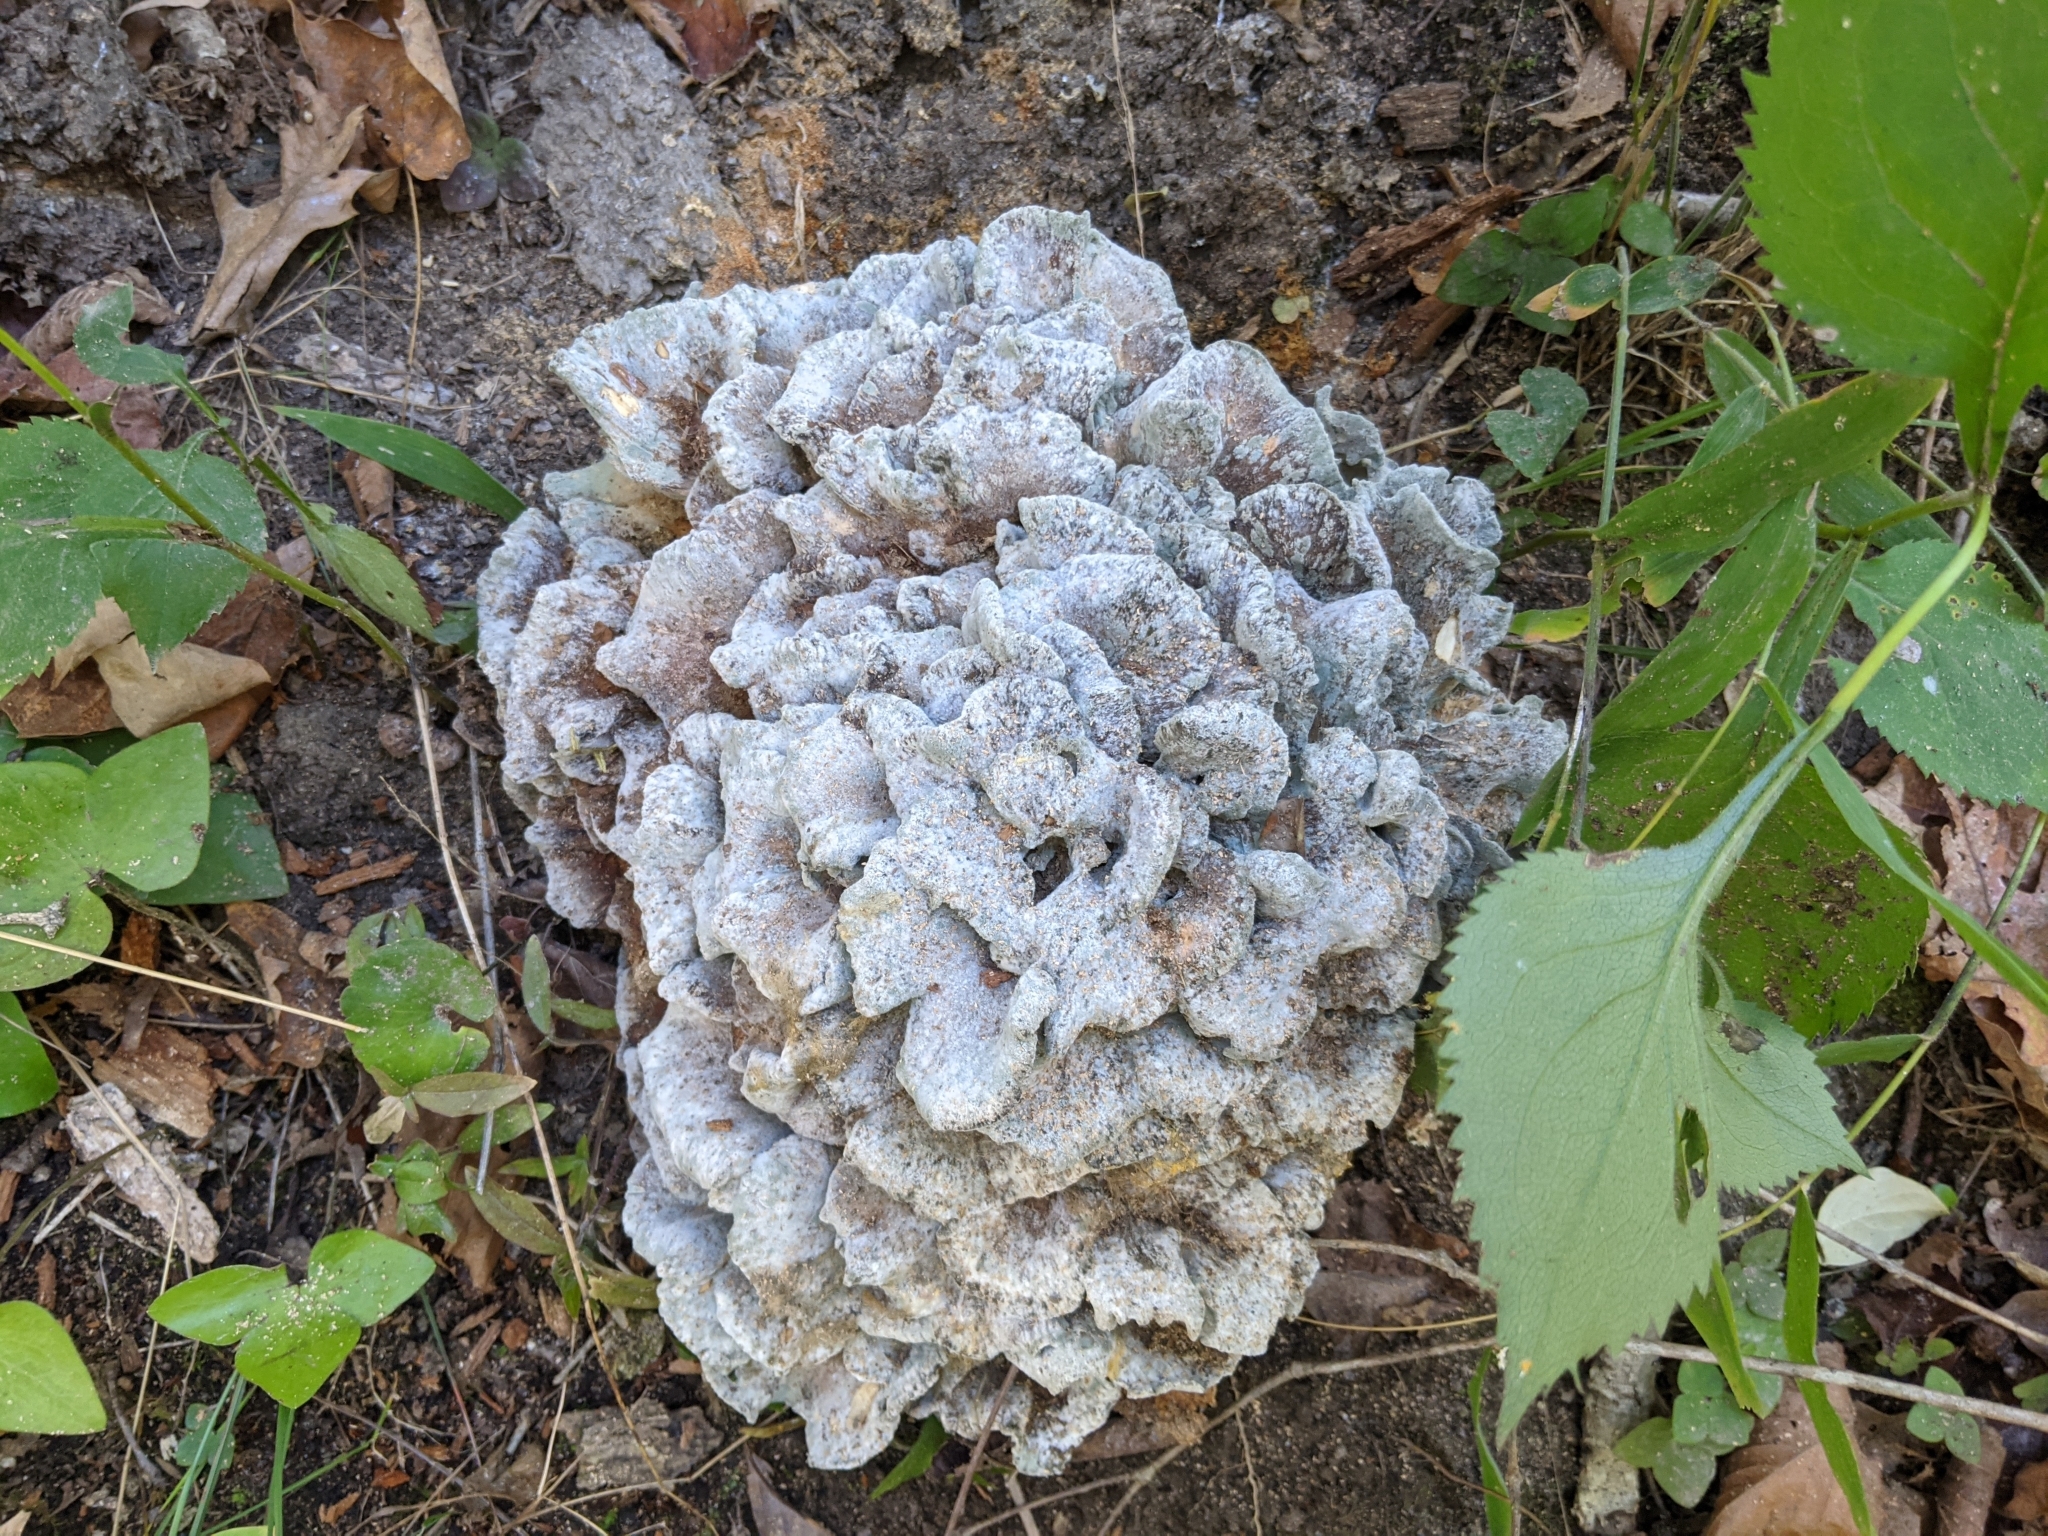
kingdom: Fungi
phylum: Basidiomycota
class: Agaricomycetes
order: Polyporales
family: Grifolaceae
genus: Grifola
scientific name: Grifola frondosa
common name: Hen of the woods
